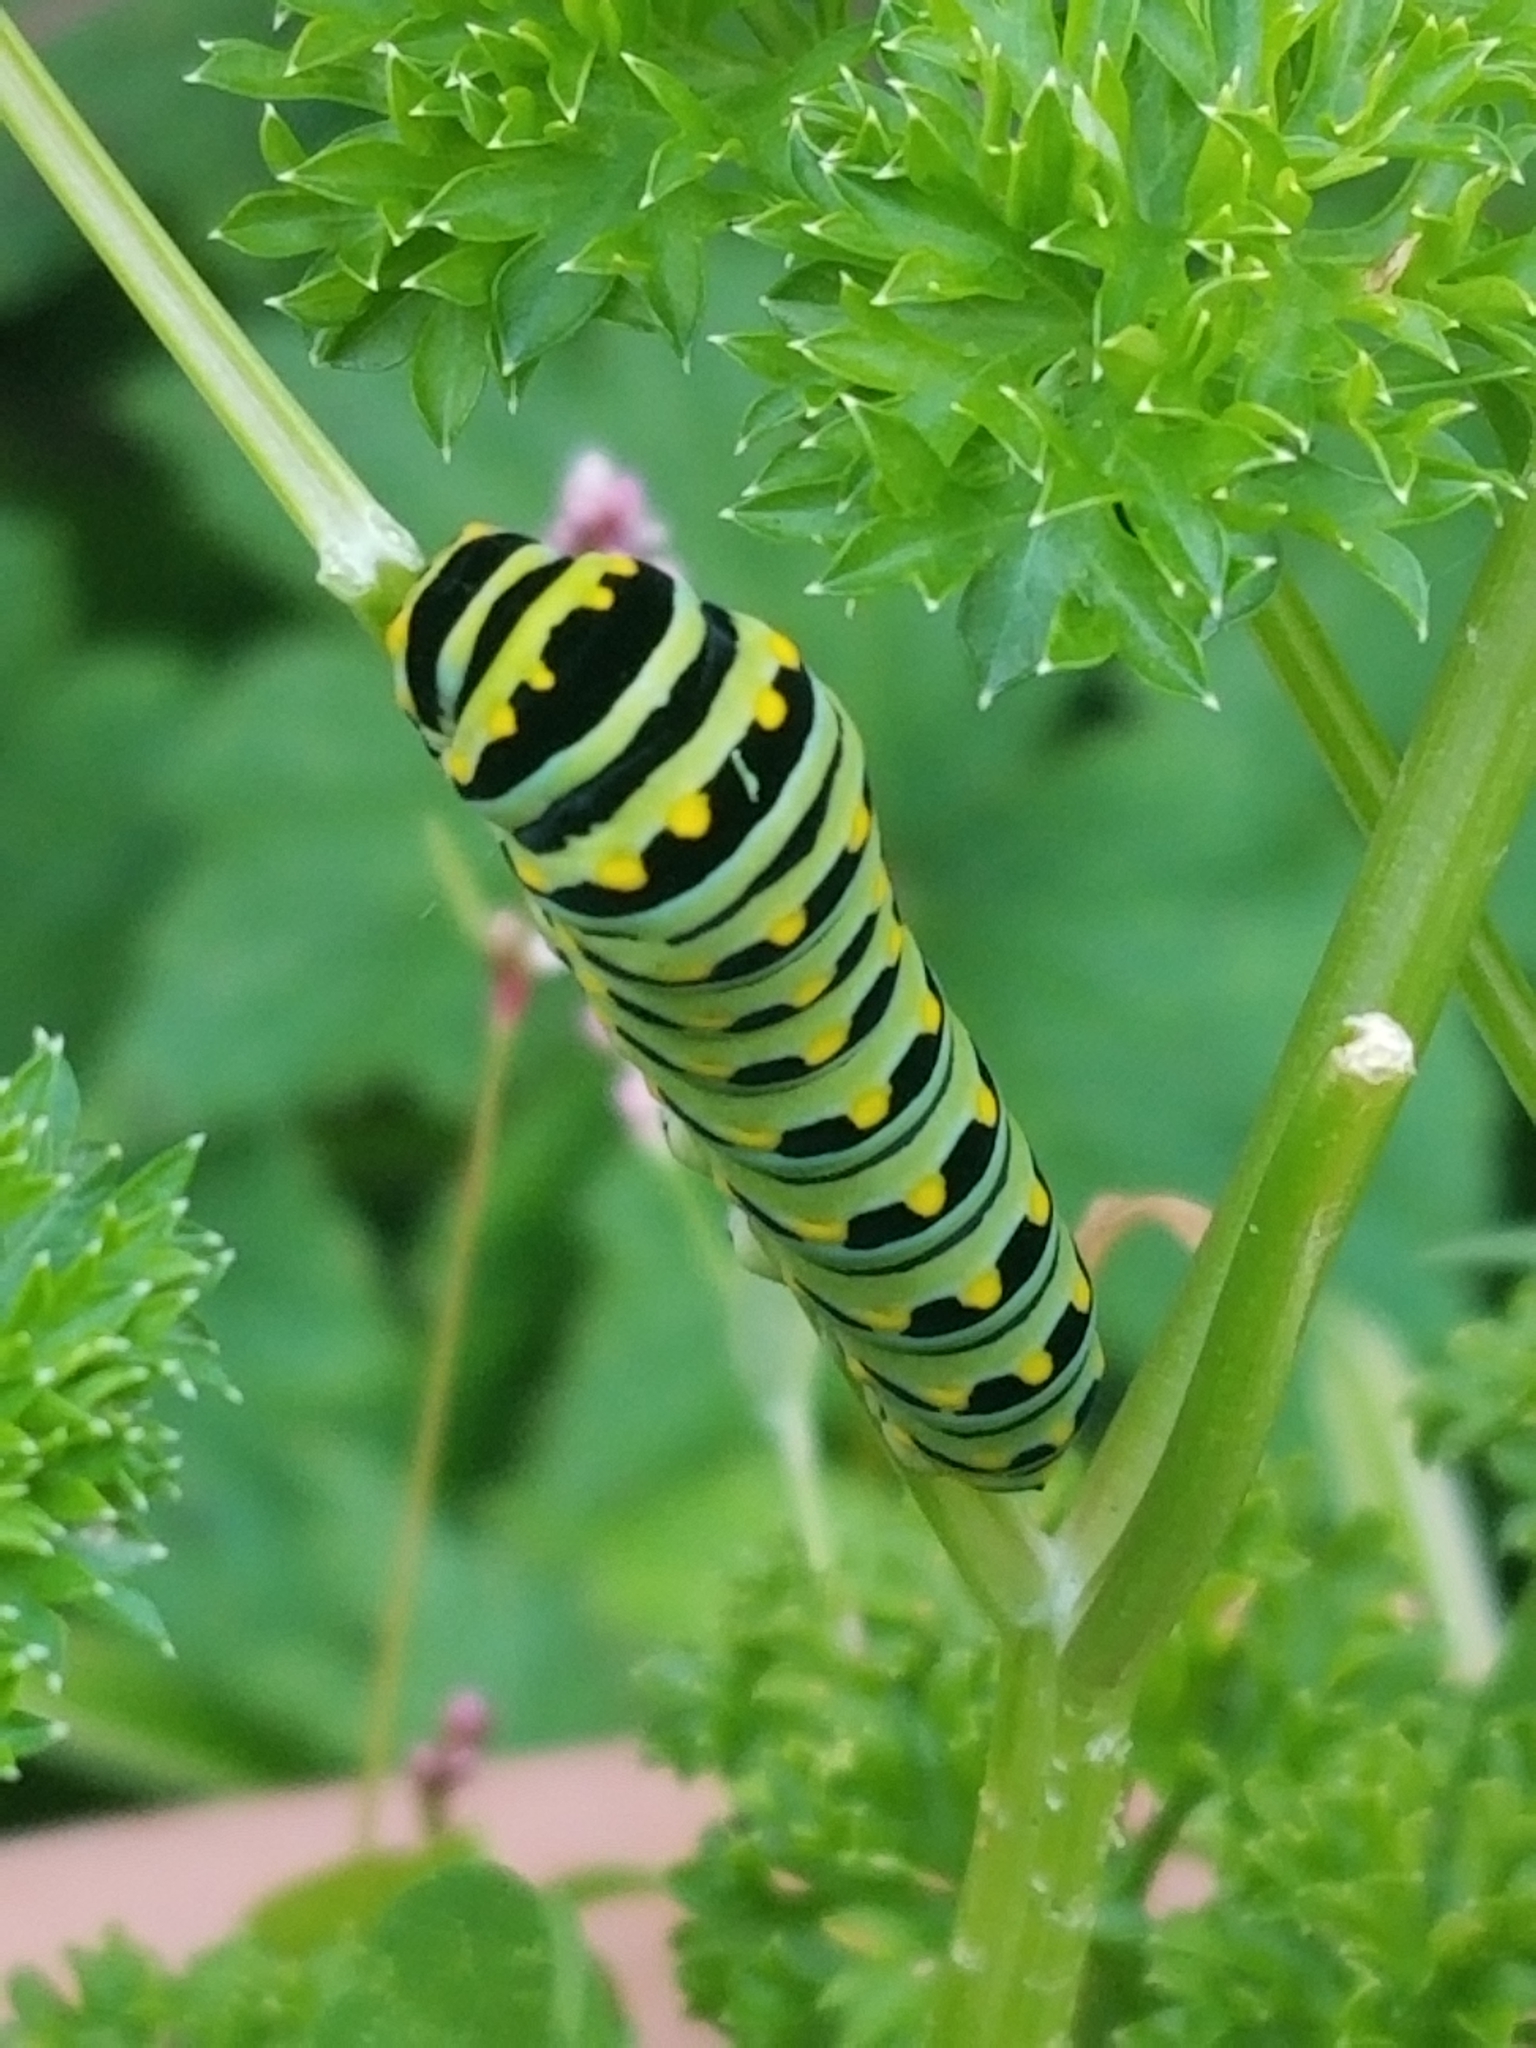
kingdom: Animalia
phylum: Arthropoda
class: Insecta
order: Lepidoptera
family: Papilionidae
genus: Papilio
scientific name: Papilio polyxenes
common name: Black swallowtail
